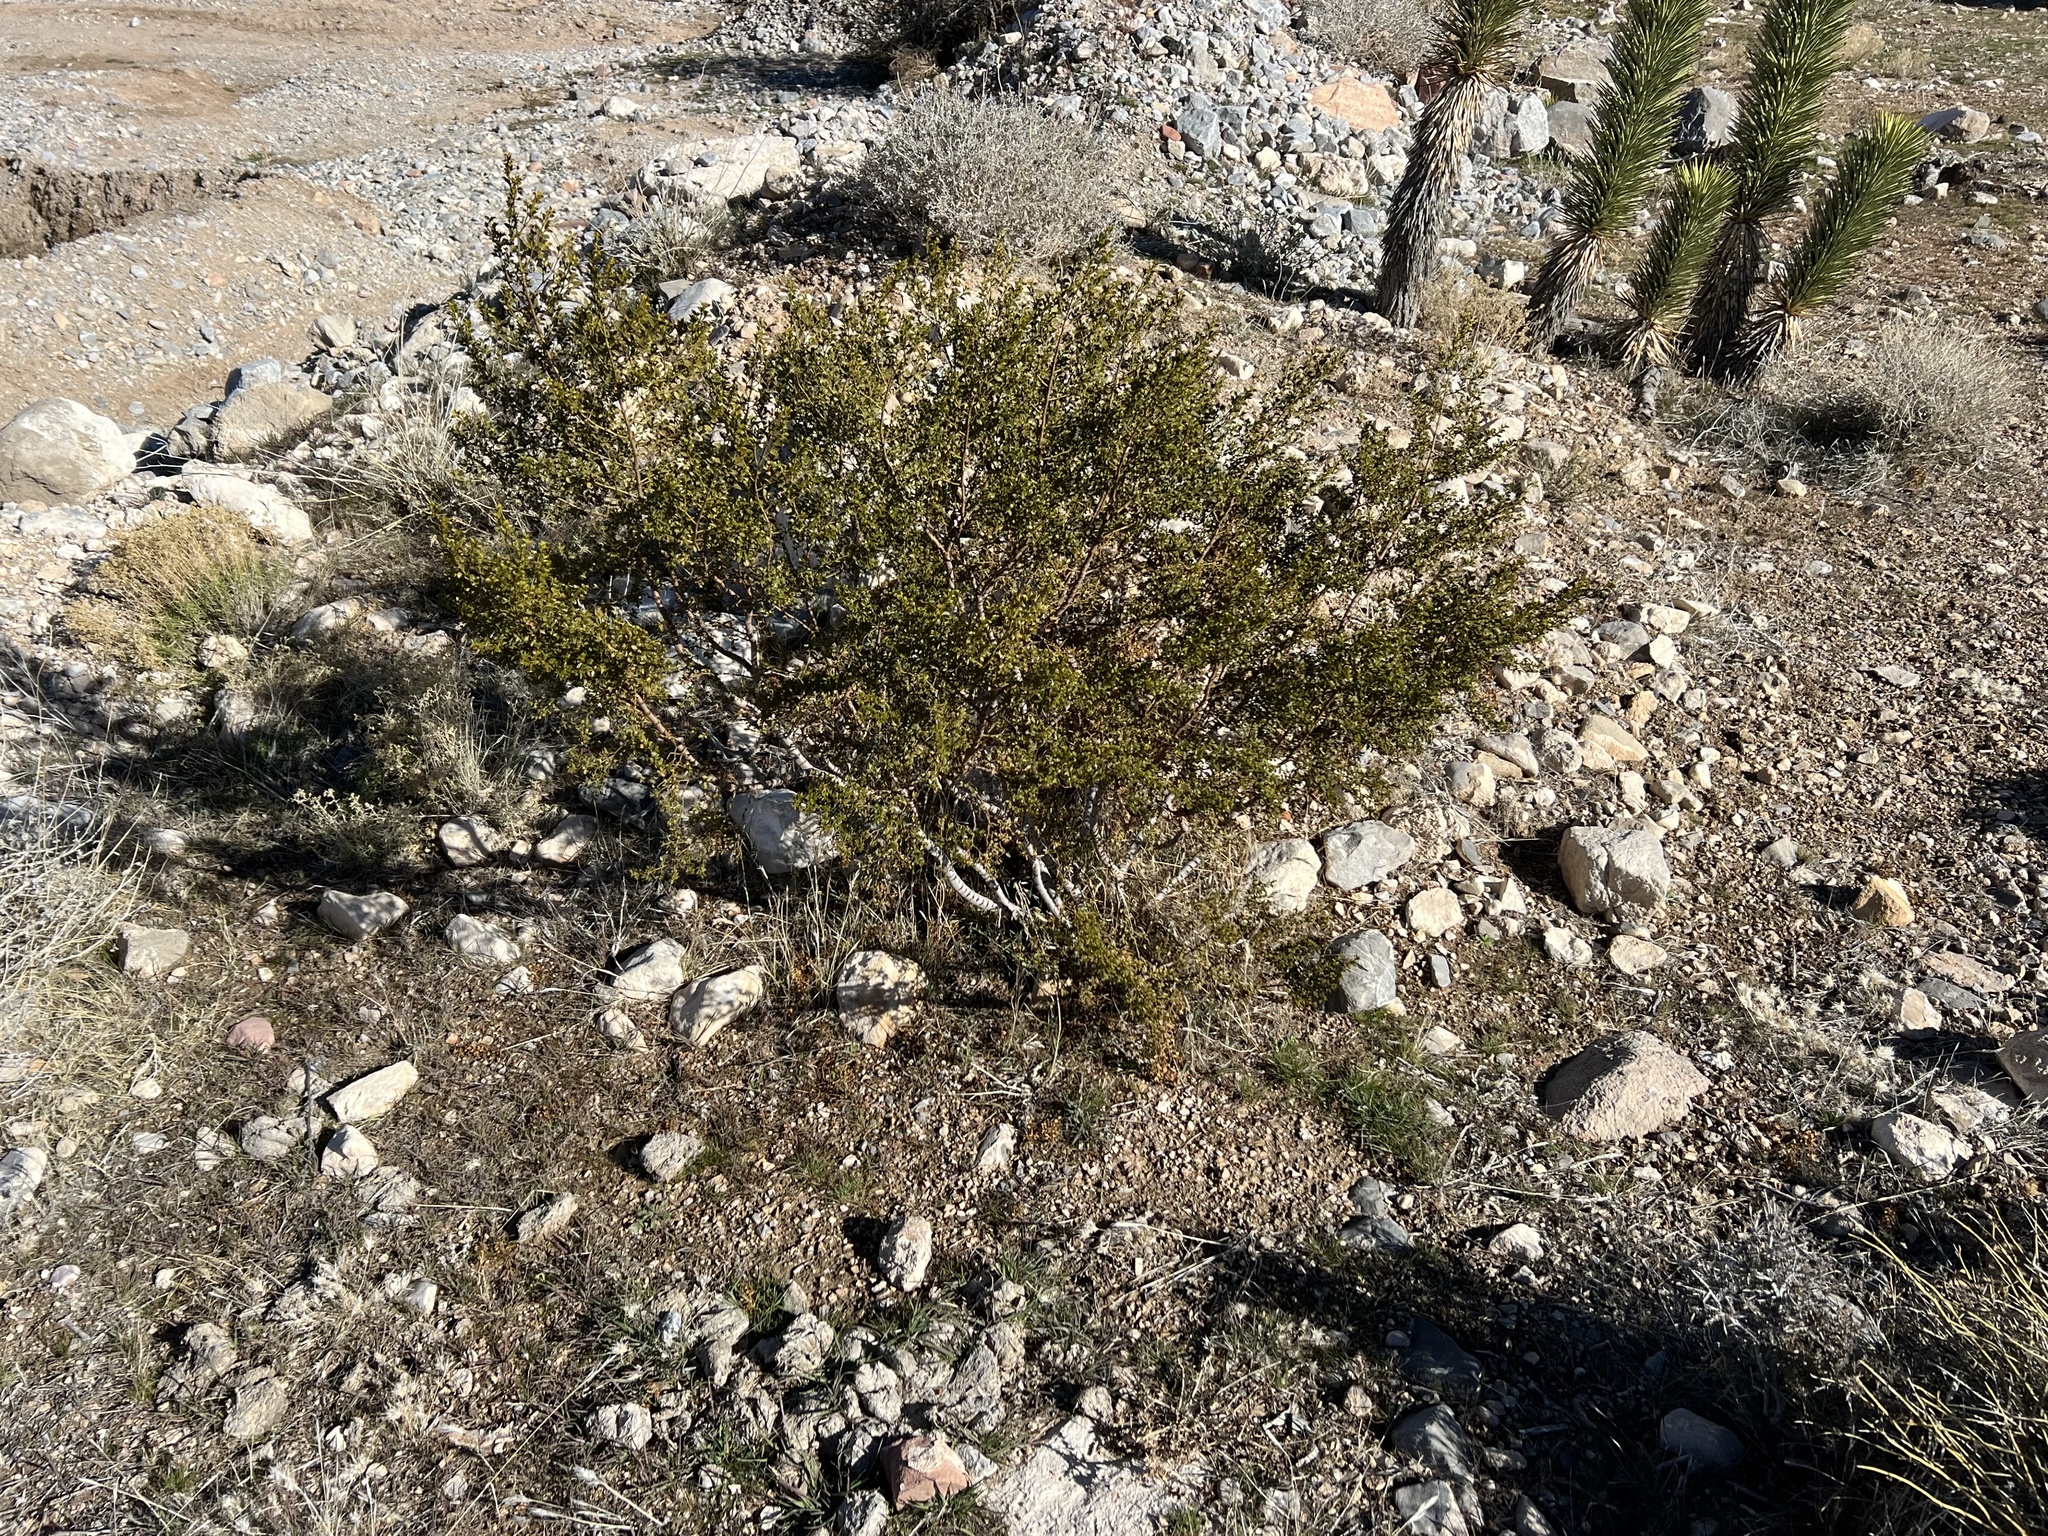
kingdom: Plantae
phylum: Tracheophyta
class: Magnoliopsida
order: Zygophyllales
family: Zygophyllaceae
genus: Larrea
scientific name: Larrea tridentata
